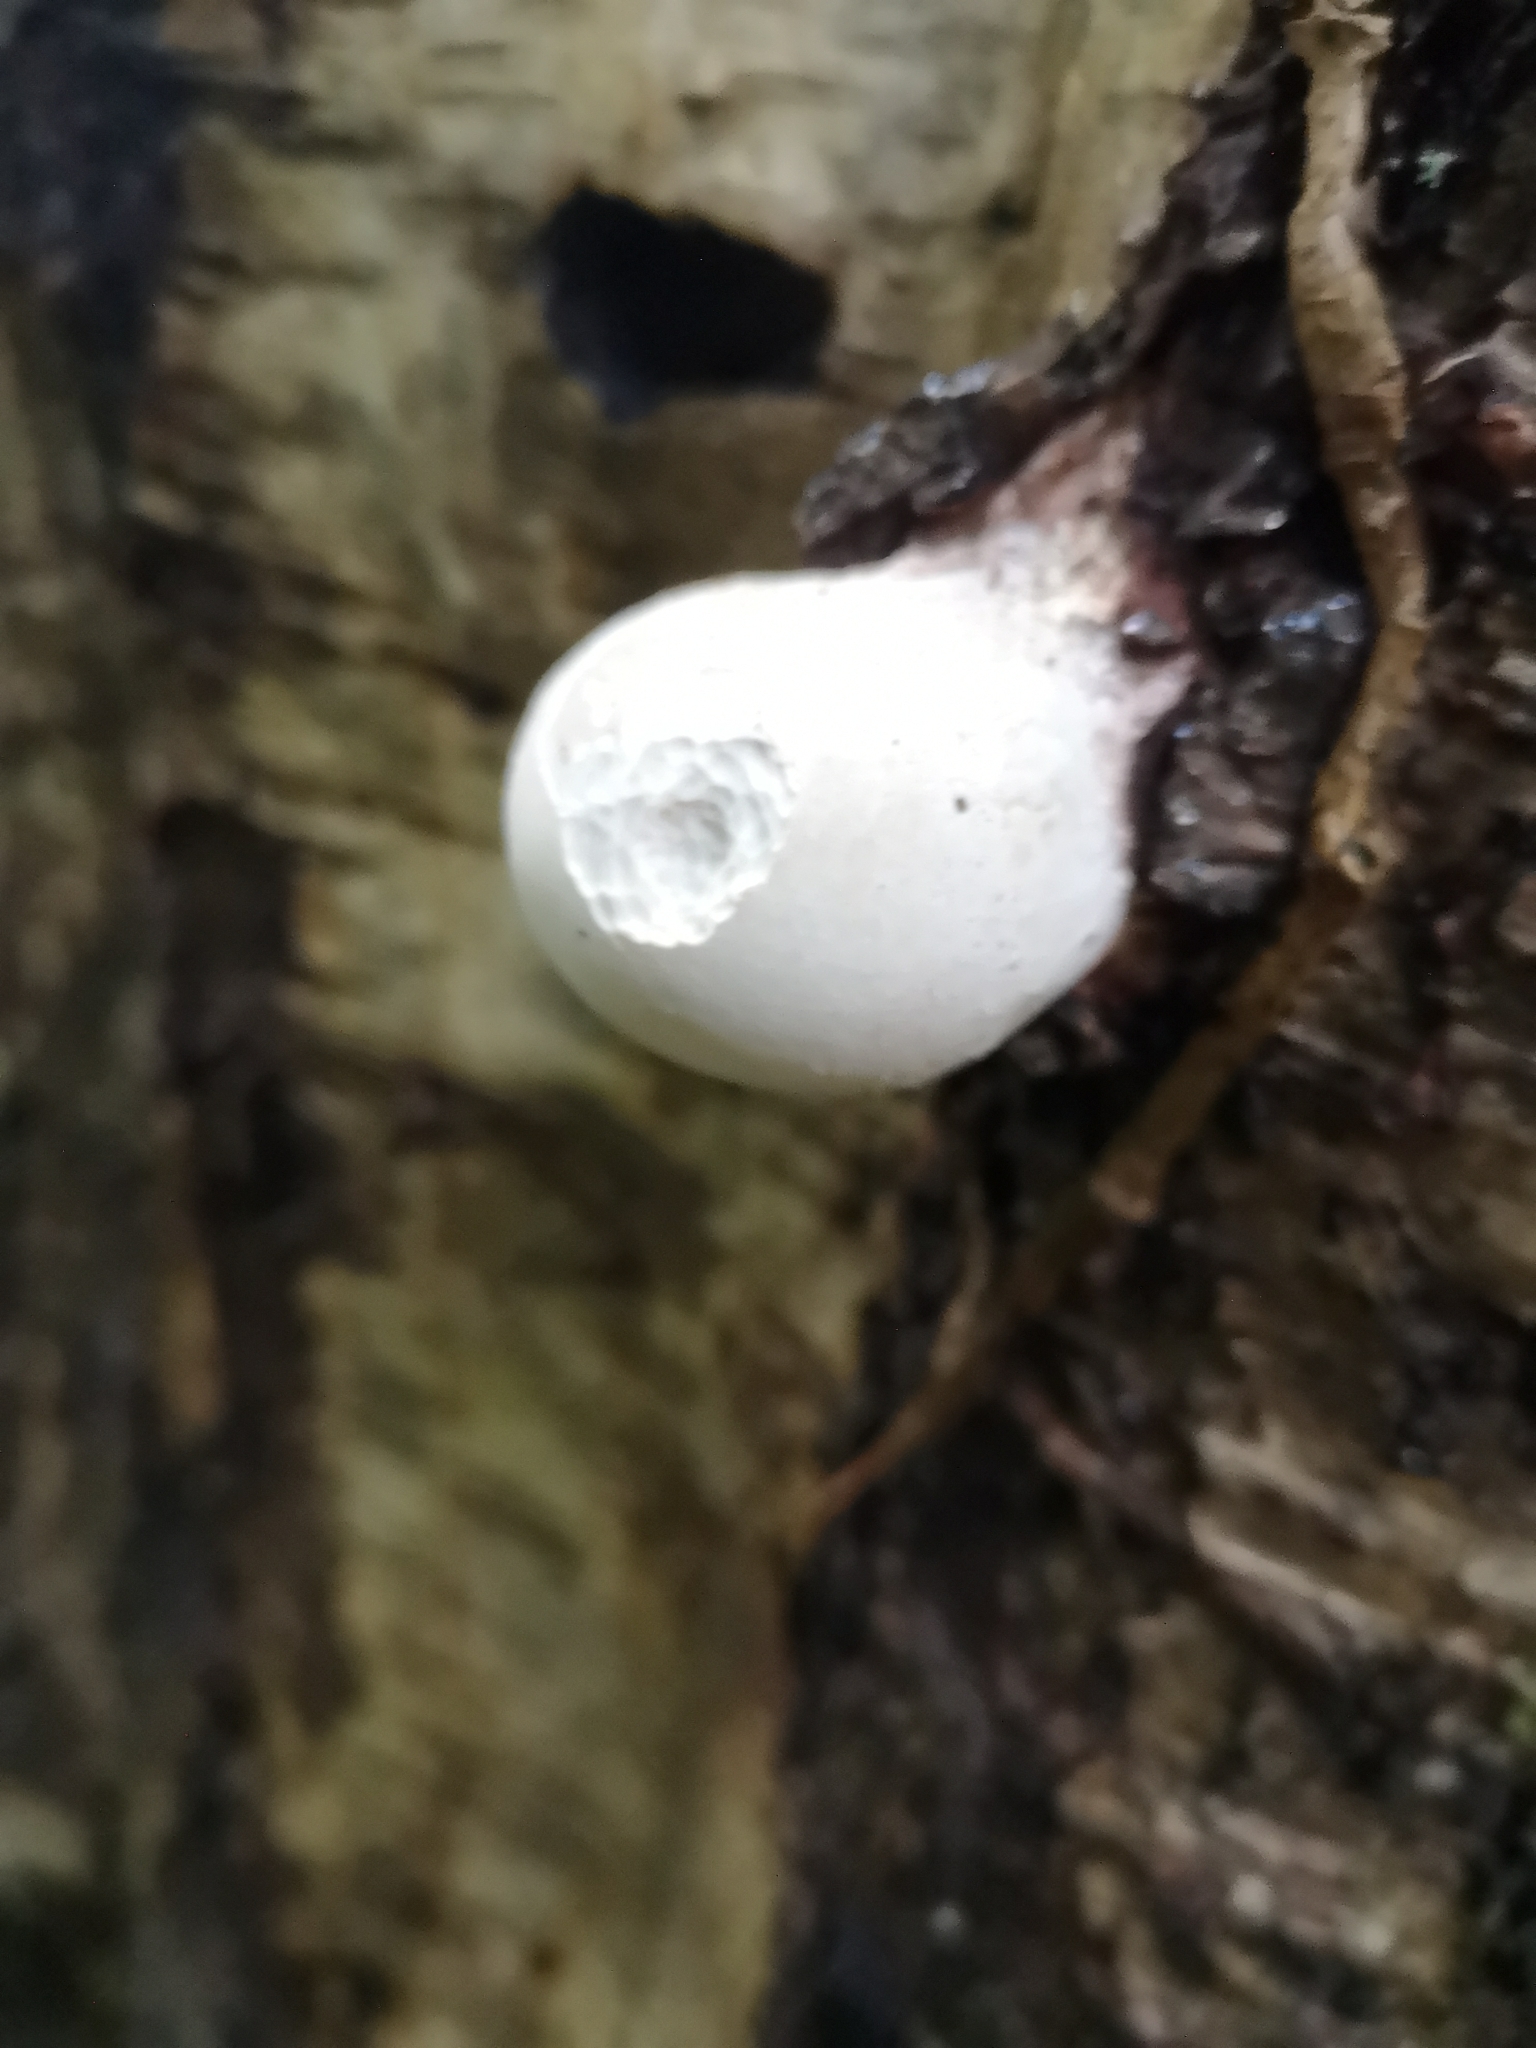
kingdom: Fungi
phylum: Basidiomycota
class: Agaricomycetes
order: Polyporales
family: Fomitopsidaceae
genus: Fomitopsis
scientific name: Fomitopsis betulina
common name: Birch polypore
